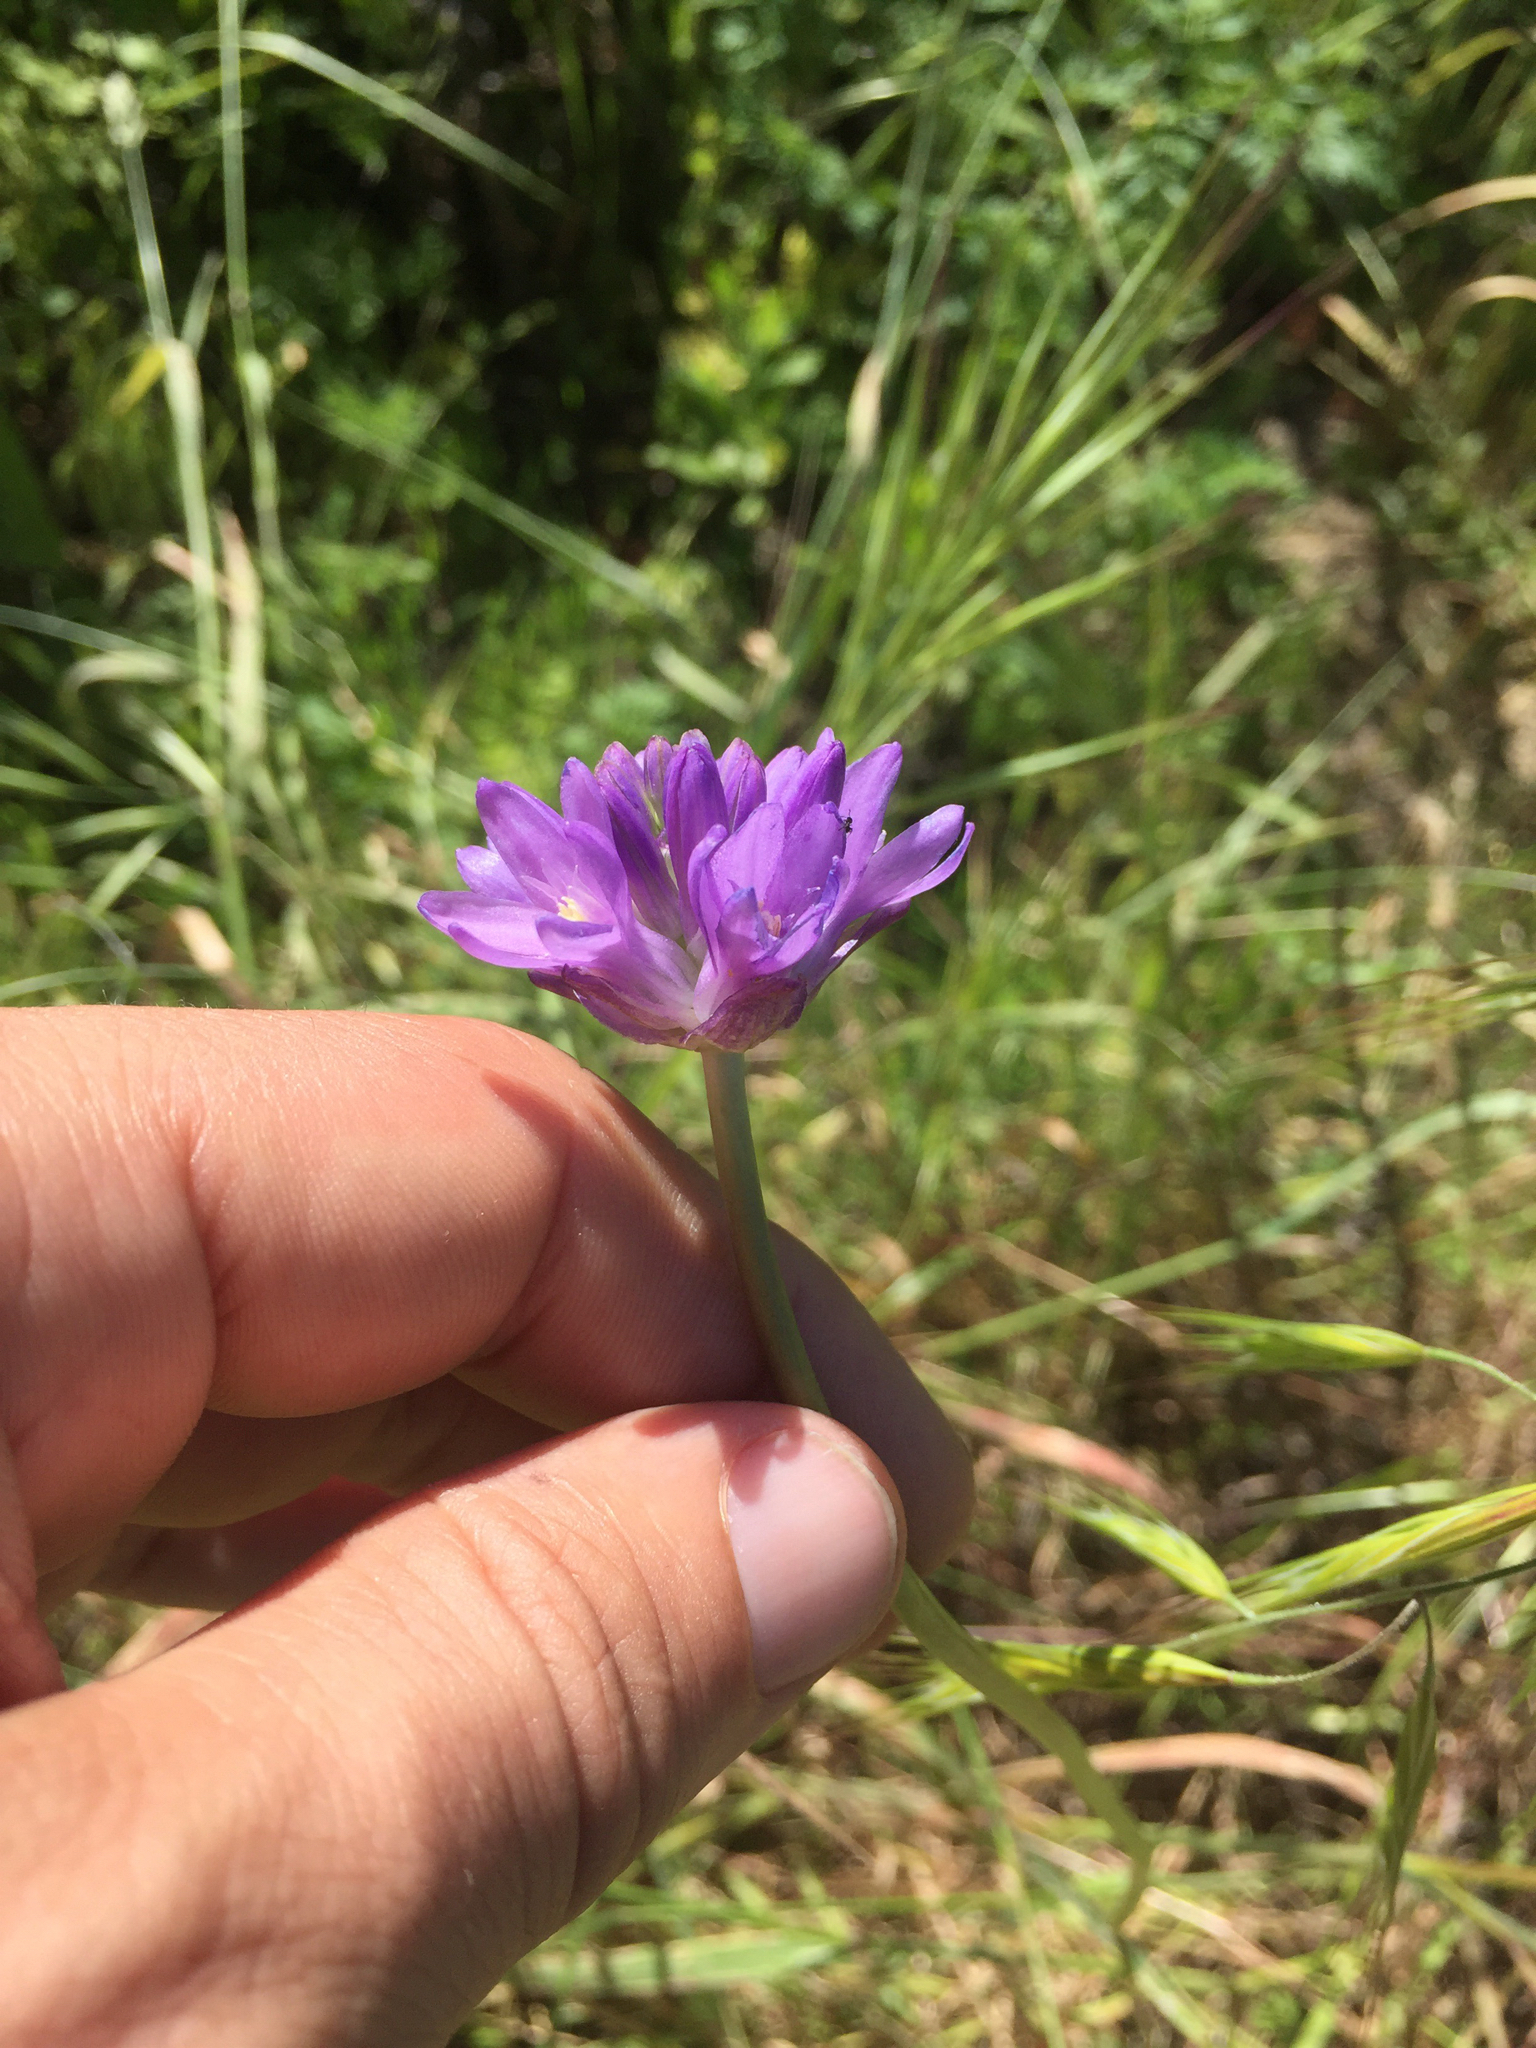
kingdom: Plantae
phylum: Tracheophyta
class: Liliopsida
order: Asparagales
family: Asparagaceae
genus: Dichelostemma
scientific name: Dichelostemma congestum
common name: Fork-tooth ookow
